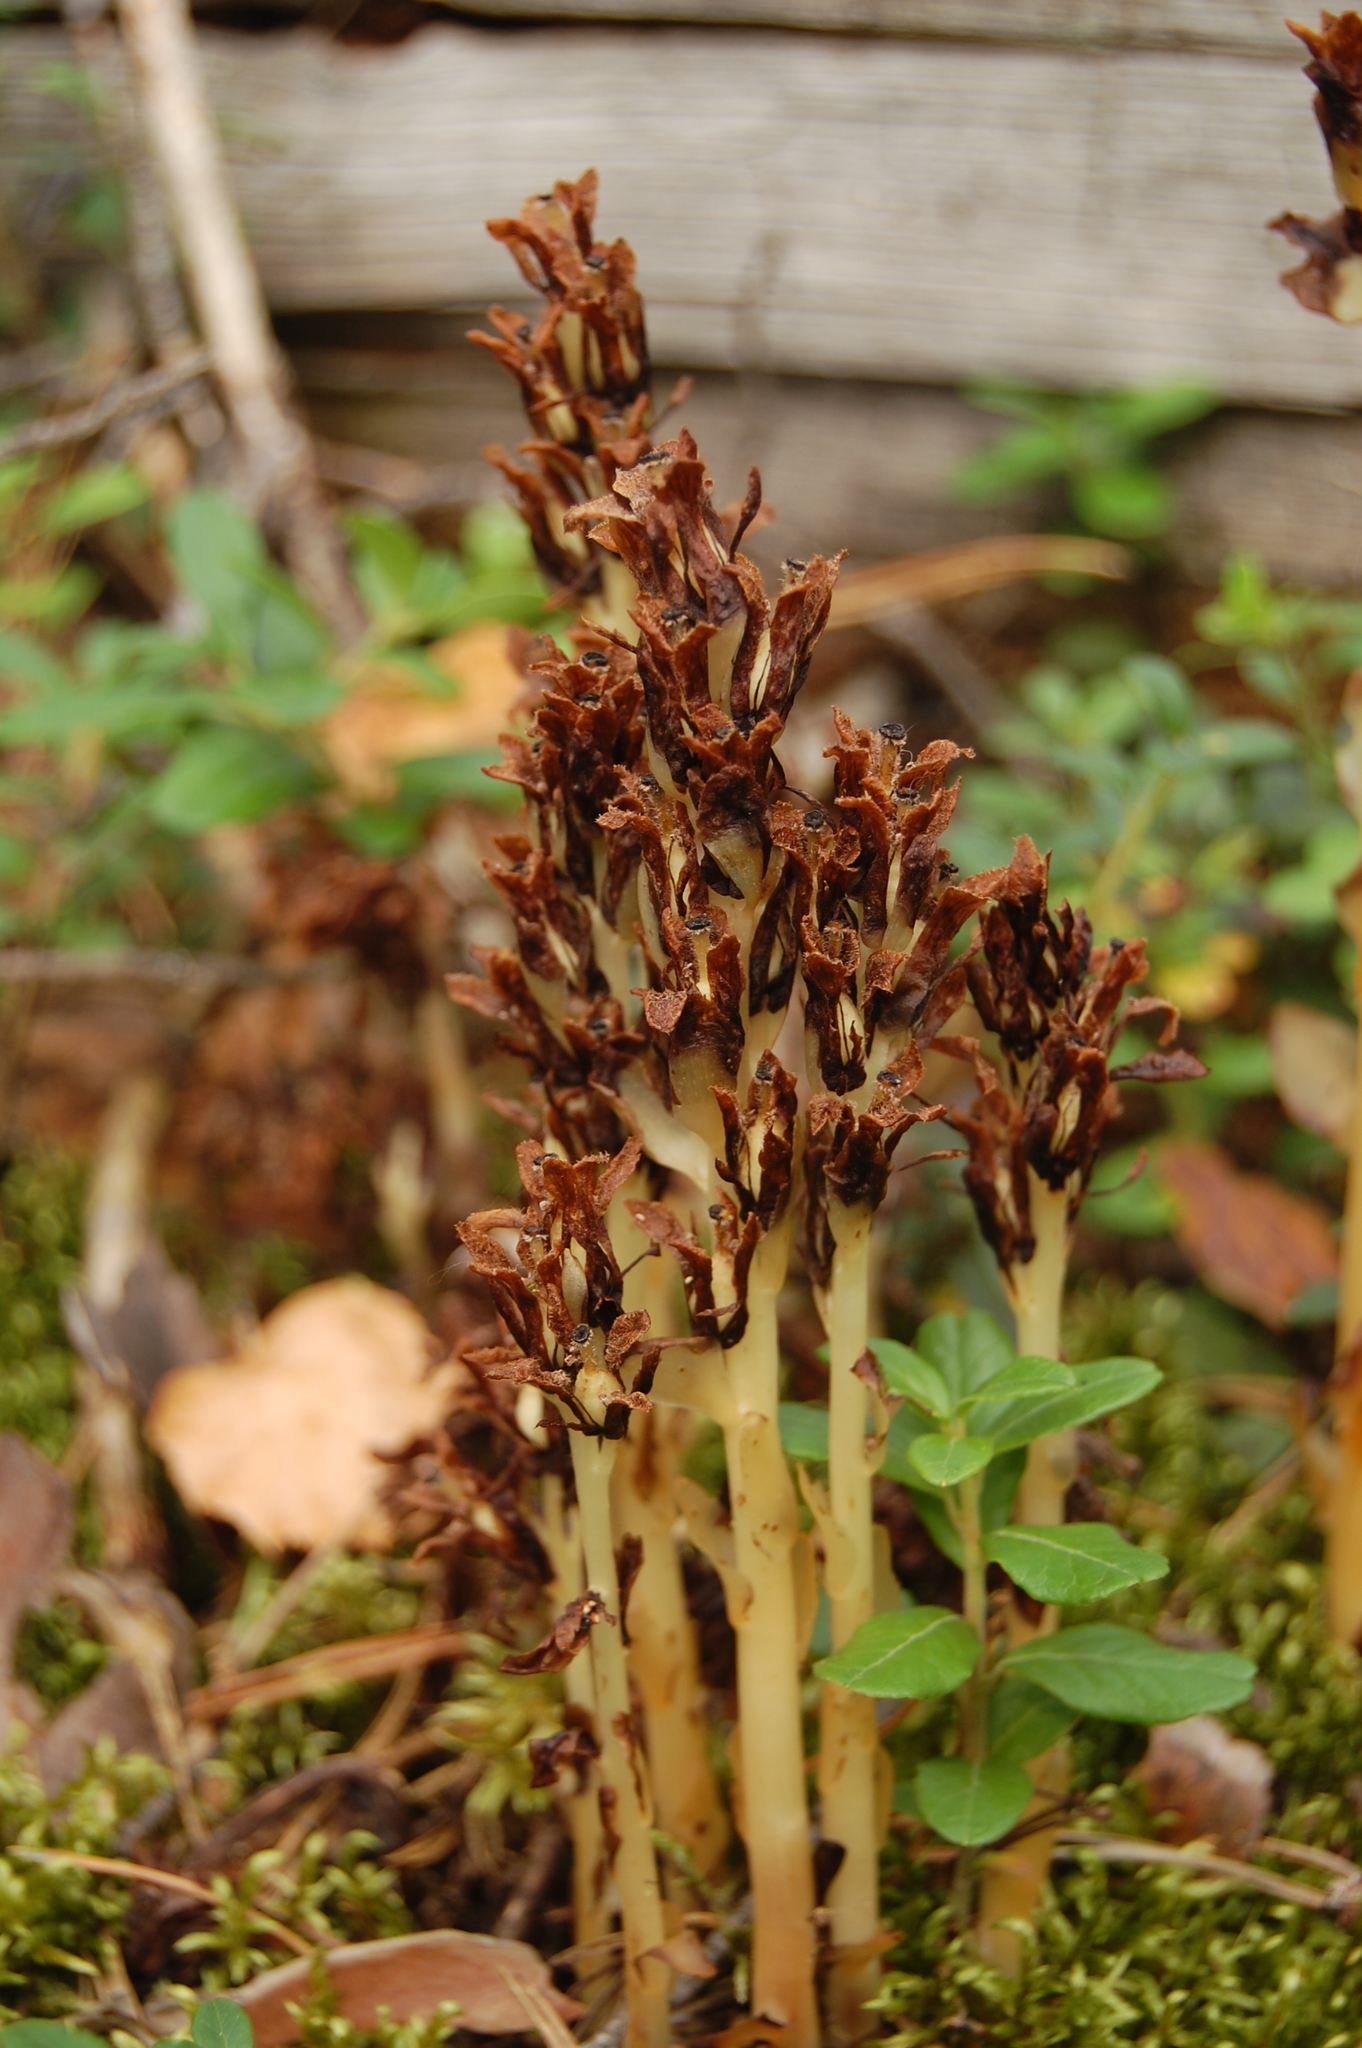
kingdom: Plantae
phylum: Tracheophyta
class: Magnoliopsida
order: Ericales
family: Ericaceae
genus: Hypopitys
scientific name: Hypopitys monotropa
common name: Yellow bird's-nest
